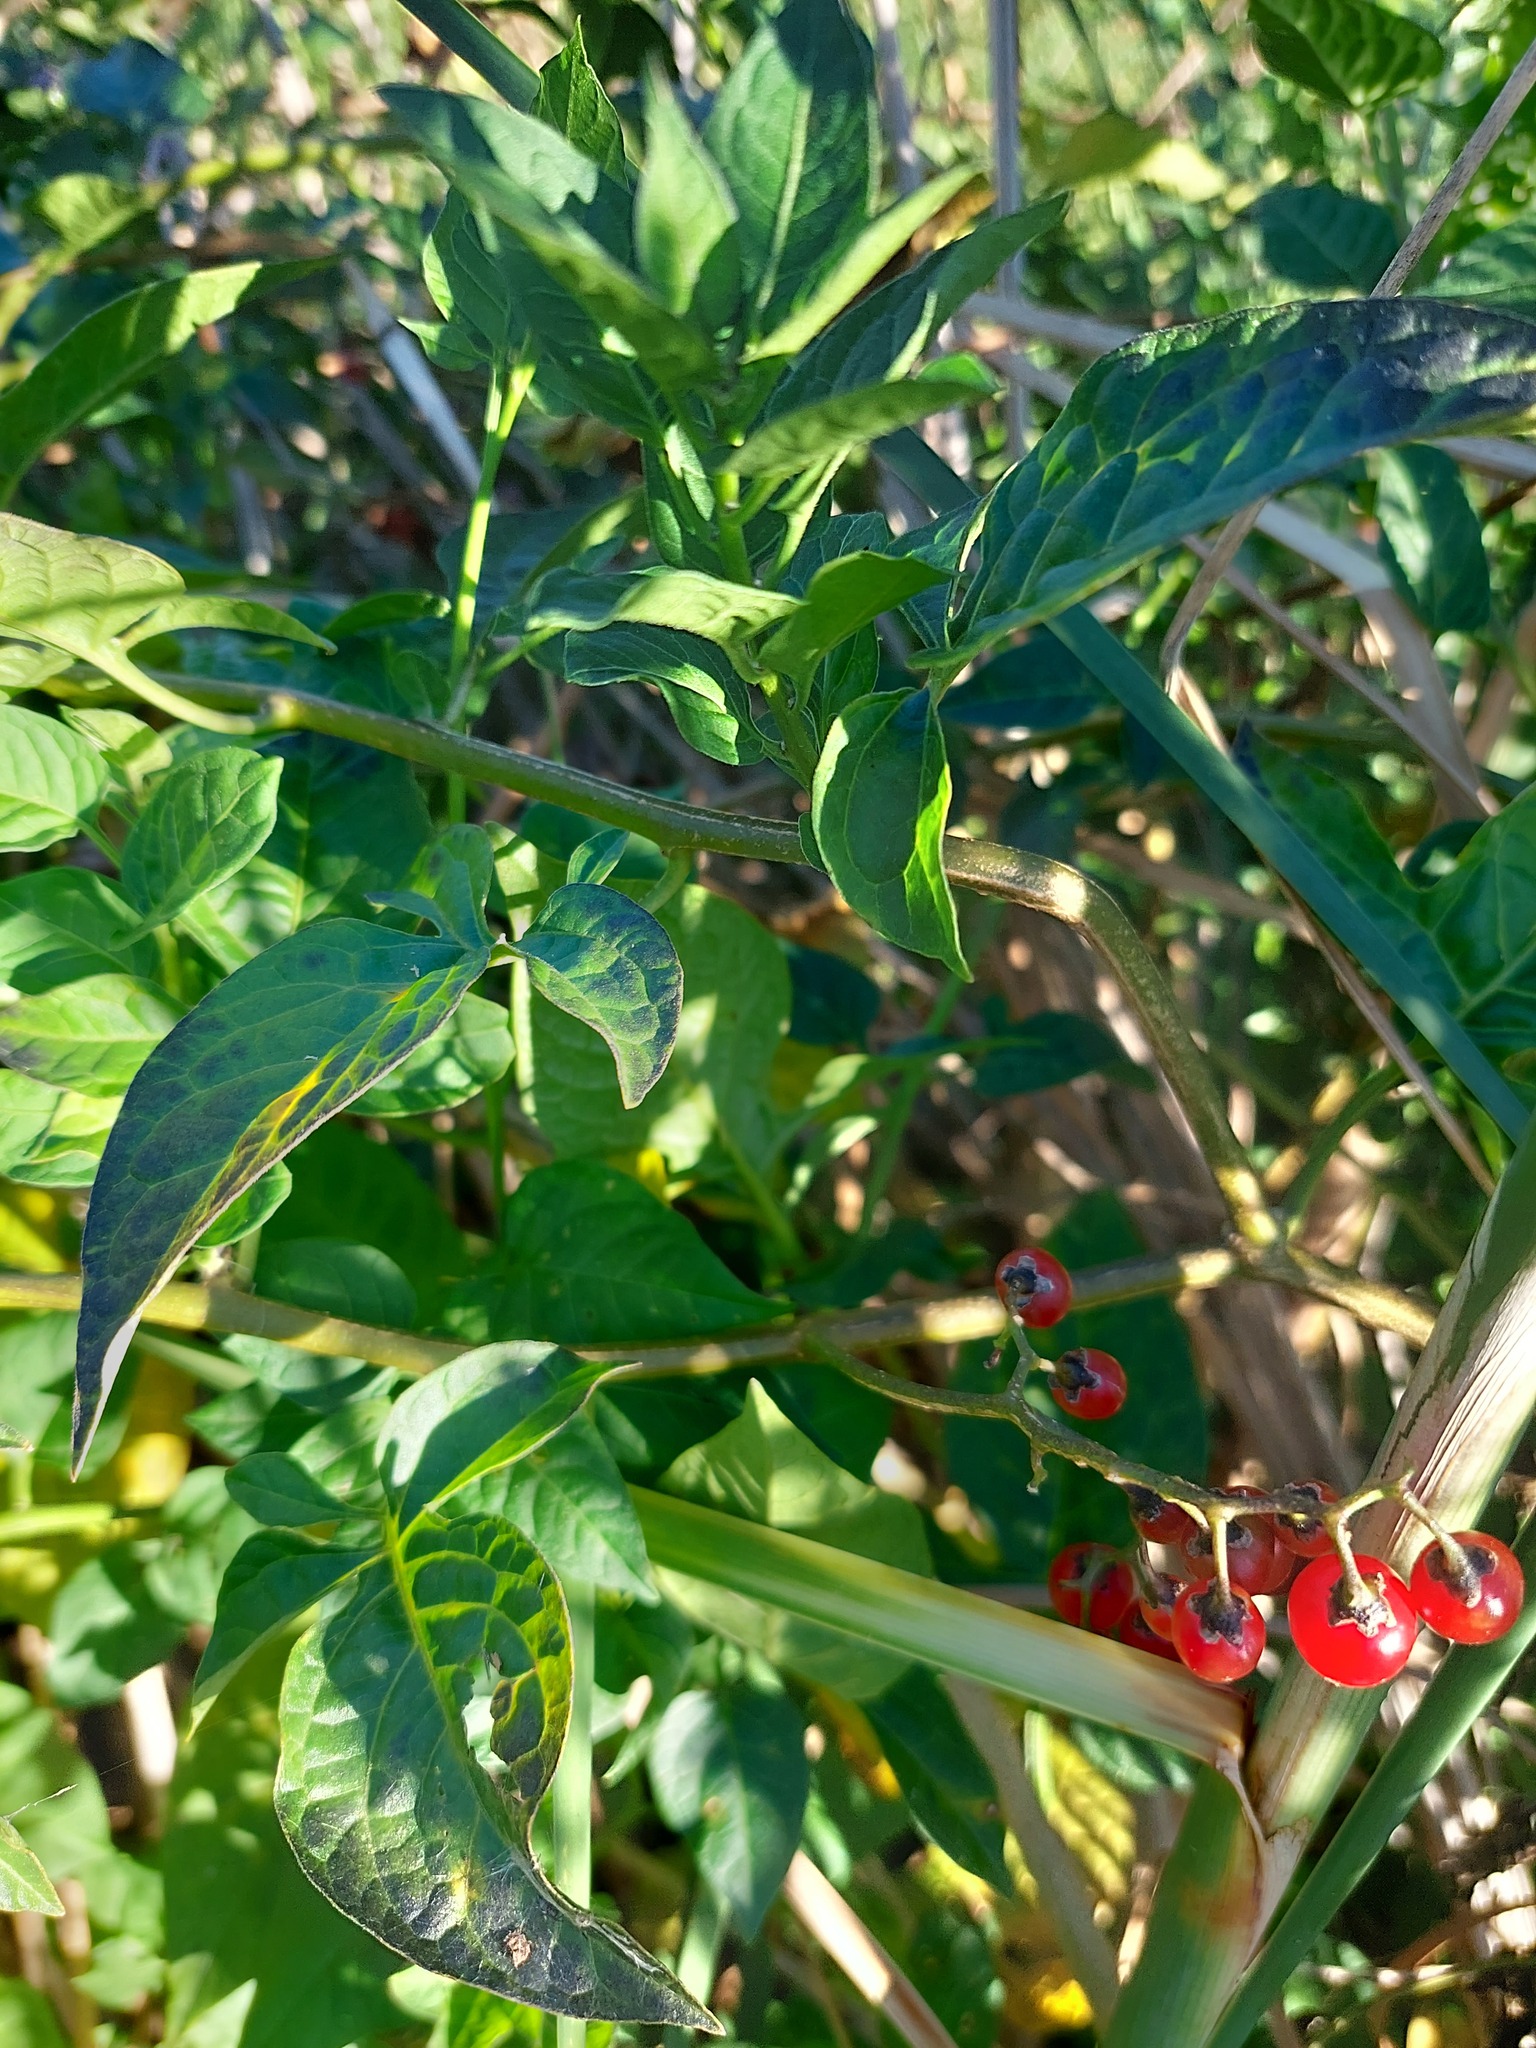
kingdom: Plantae
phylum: Tracheophyta
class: Magnoliopsida
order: Solanales
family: Solanaceae
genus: Solanum
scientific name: Solanum dulcamara
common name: Climbing nightshade
